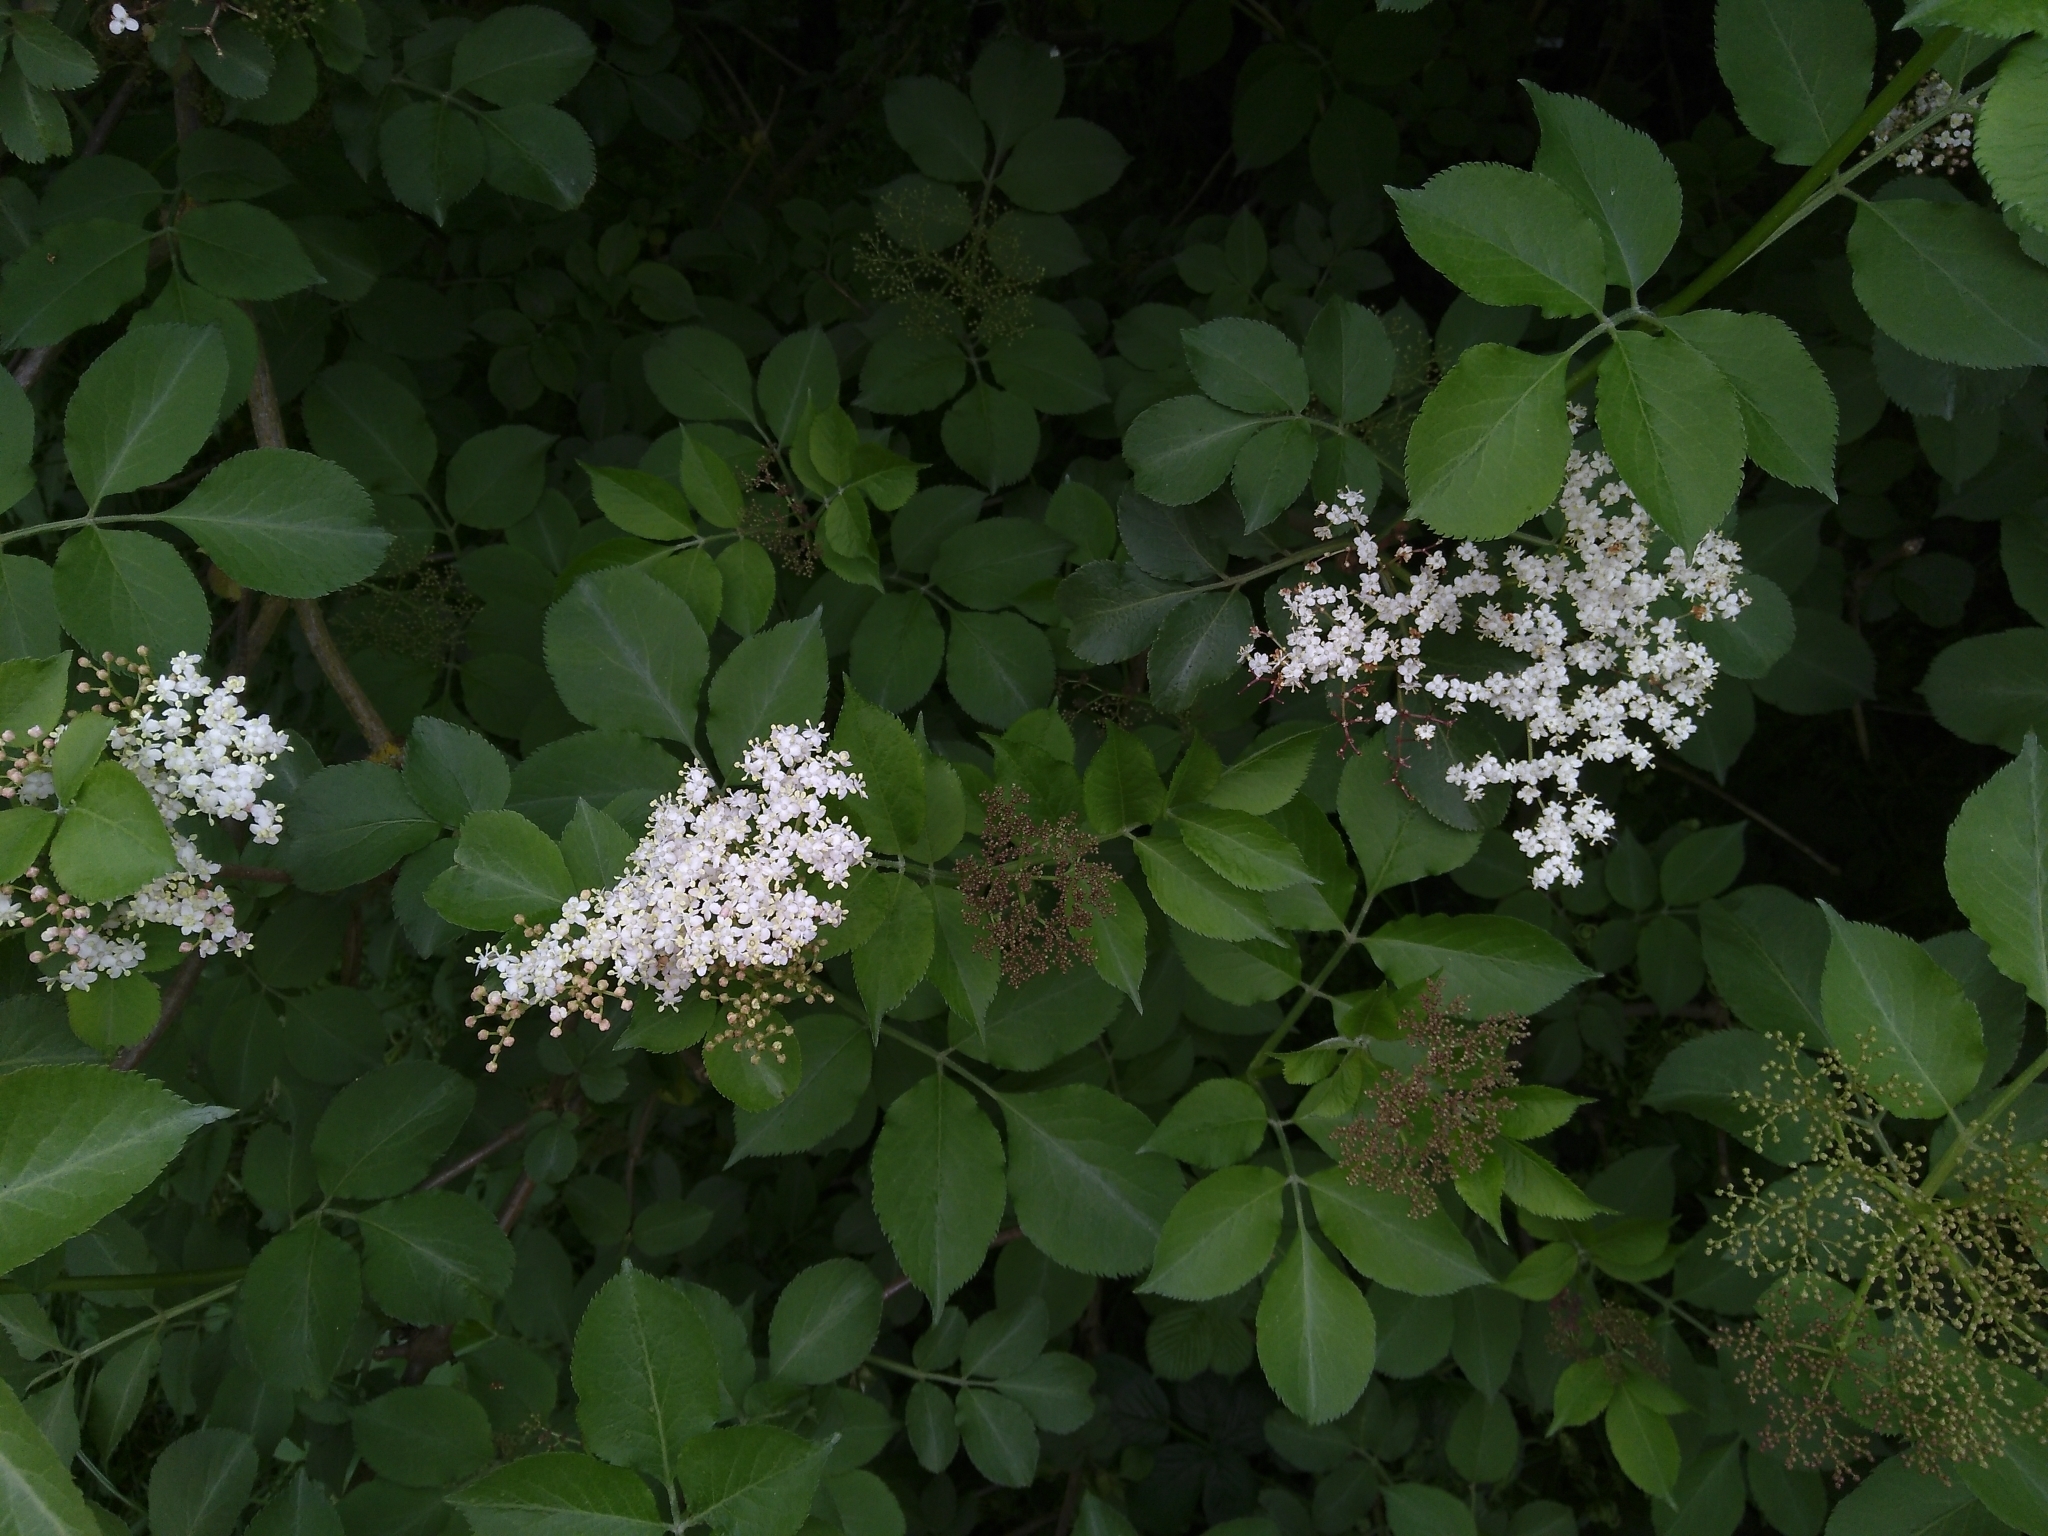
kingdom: Plantae
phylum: Tracheophyta
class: Magnoliopsida
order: Dipsacales
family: Viburnaceae
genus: Sambucus
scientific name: Sambucus nigra
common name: Elder
